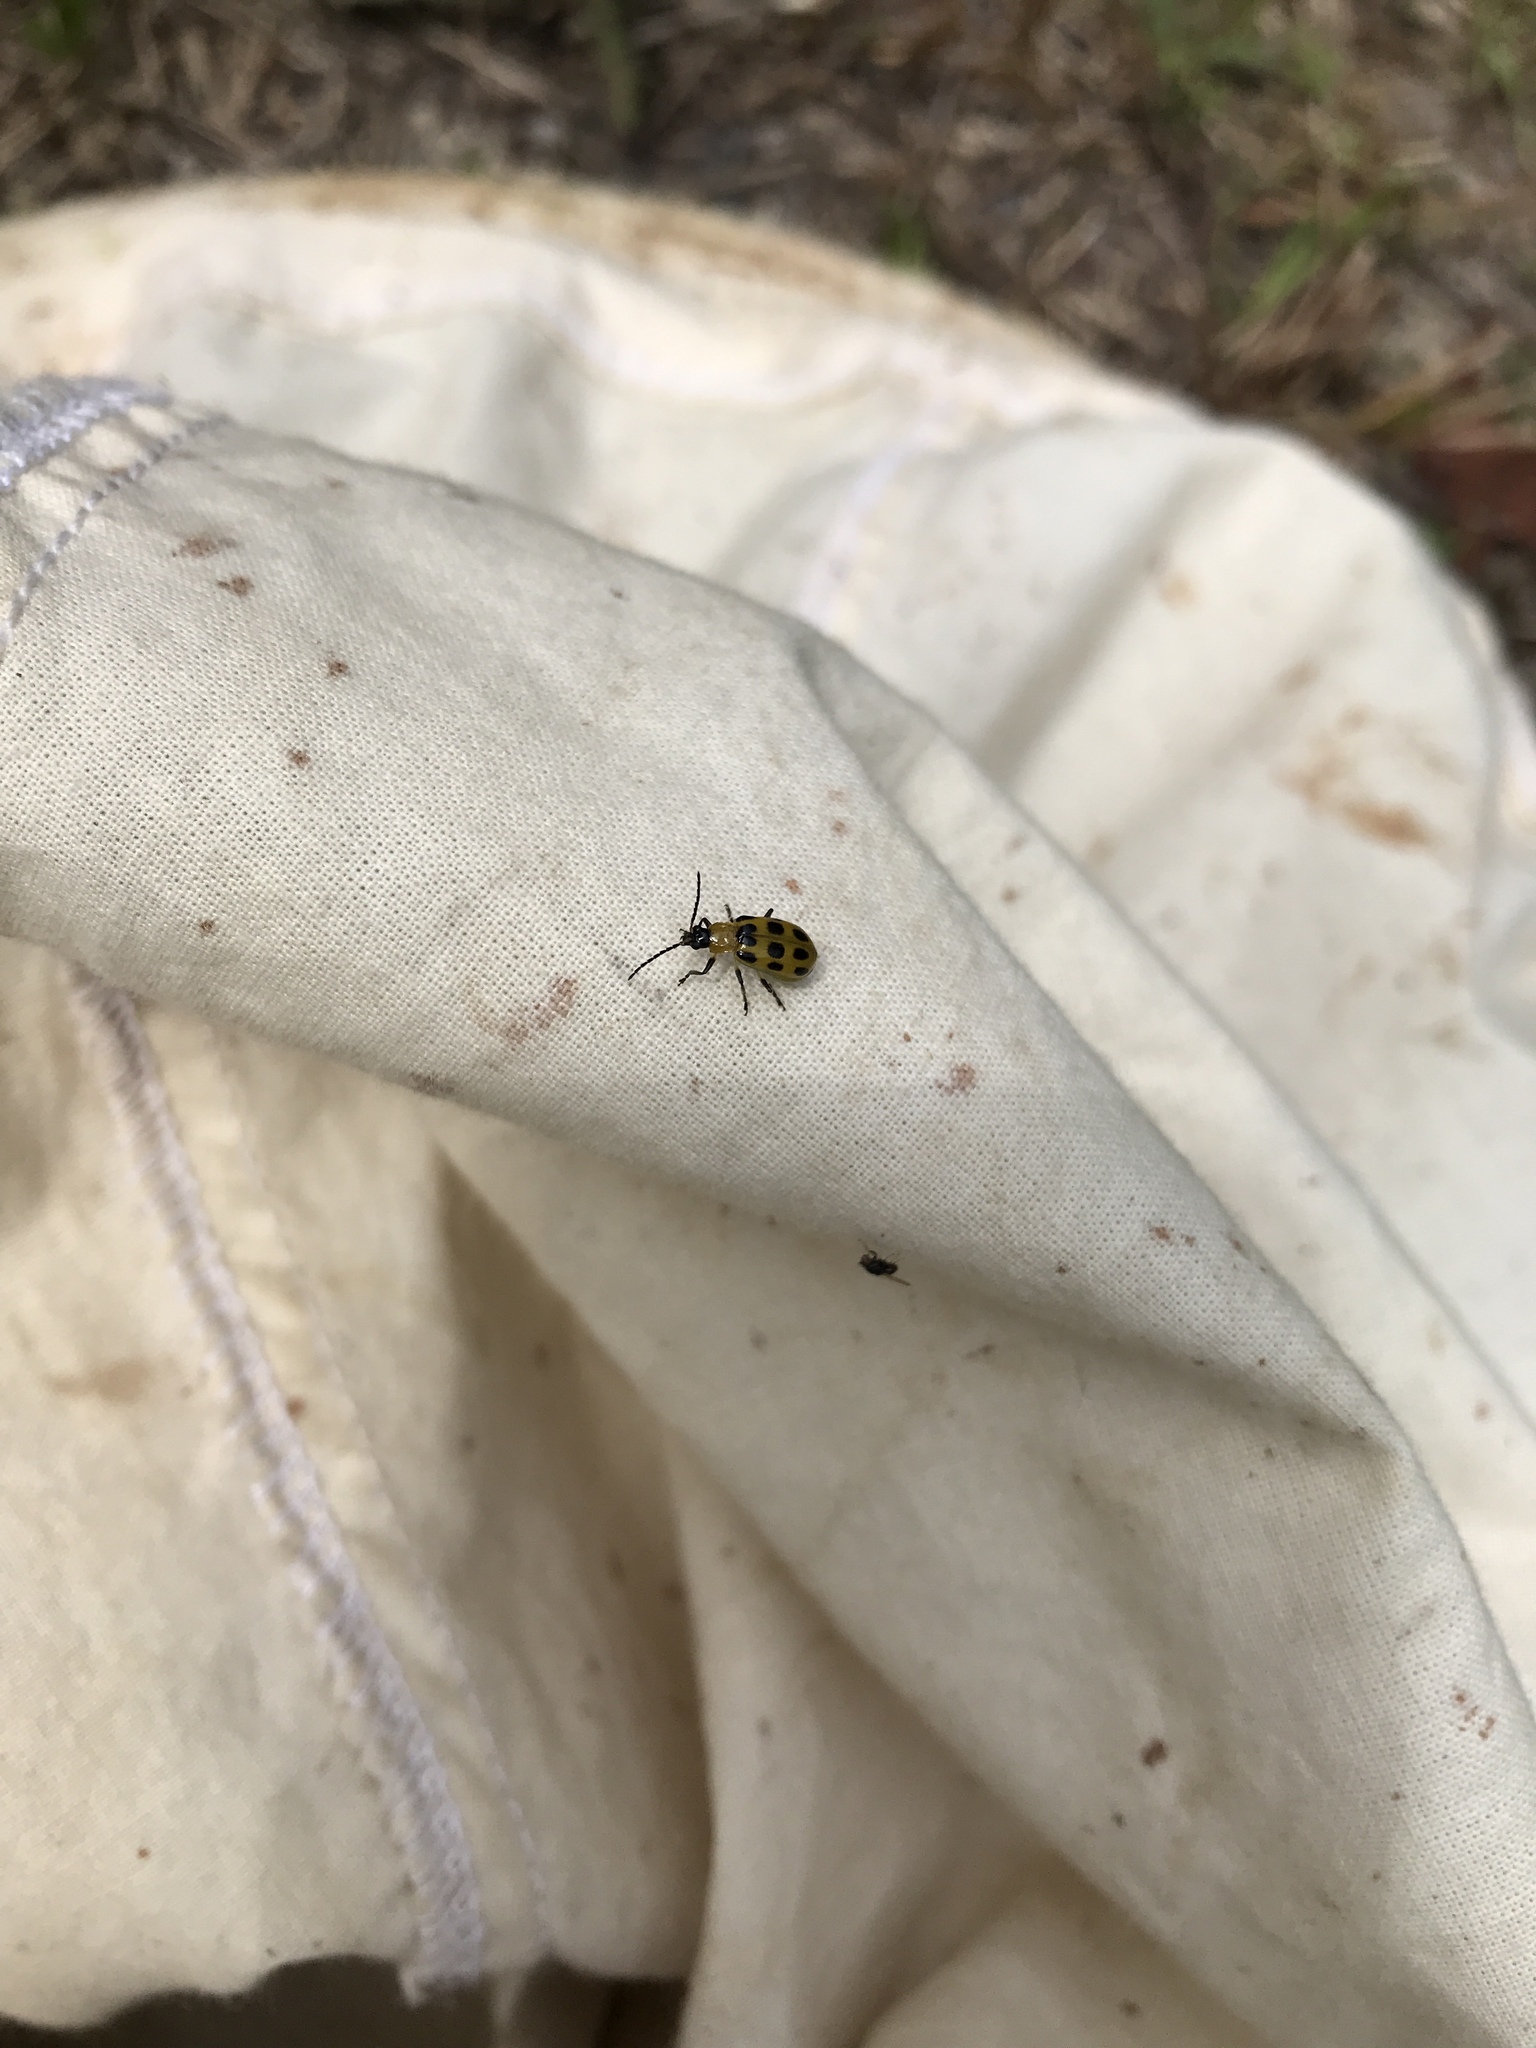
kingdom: Animalia
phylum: Arthropoda
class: Insecta
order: Coleoptera
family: Chrysomelidae
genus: Diabrotica
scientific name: Diabrotica undecimpunctata
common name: Spotted cucumber beetle
